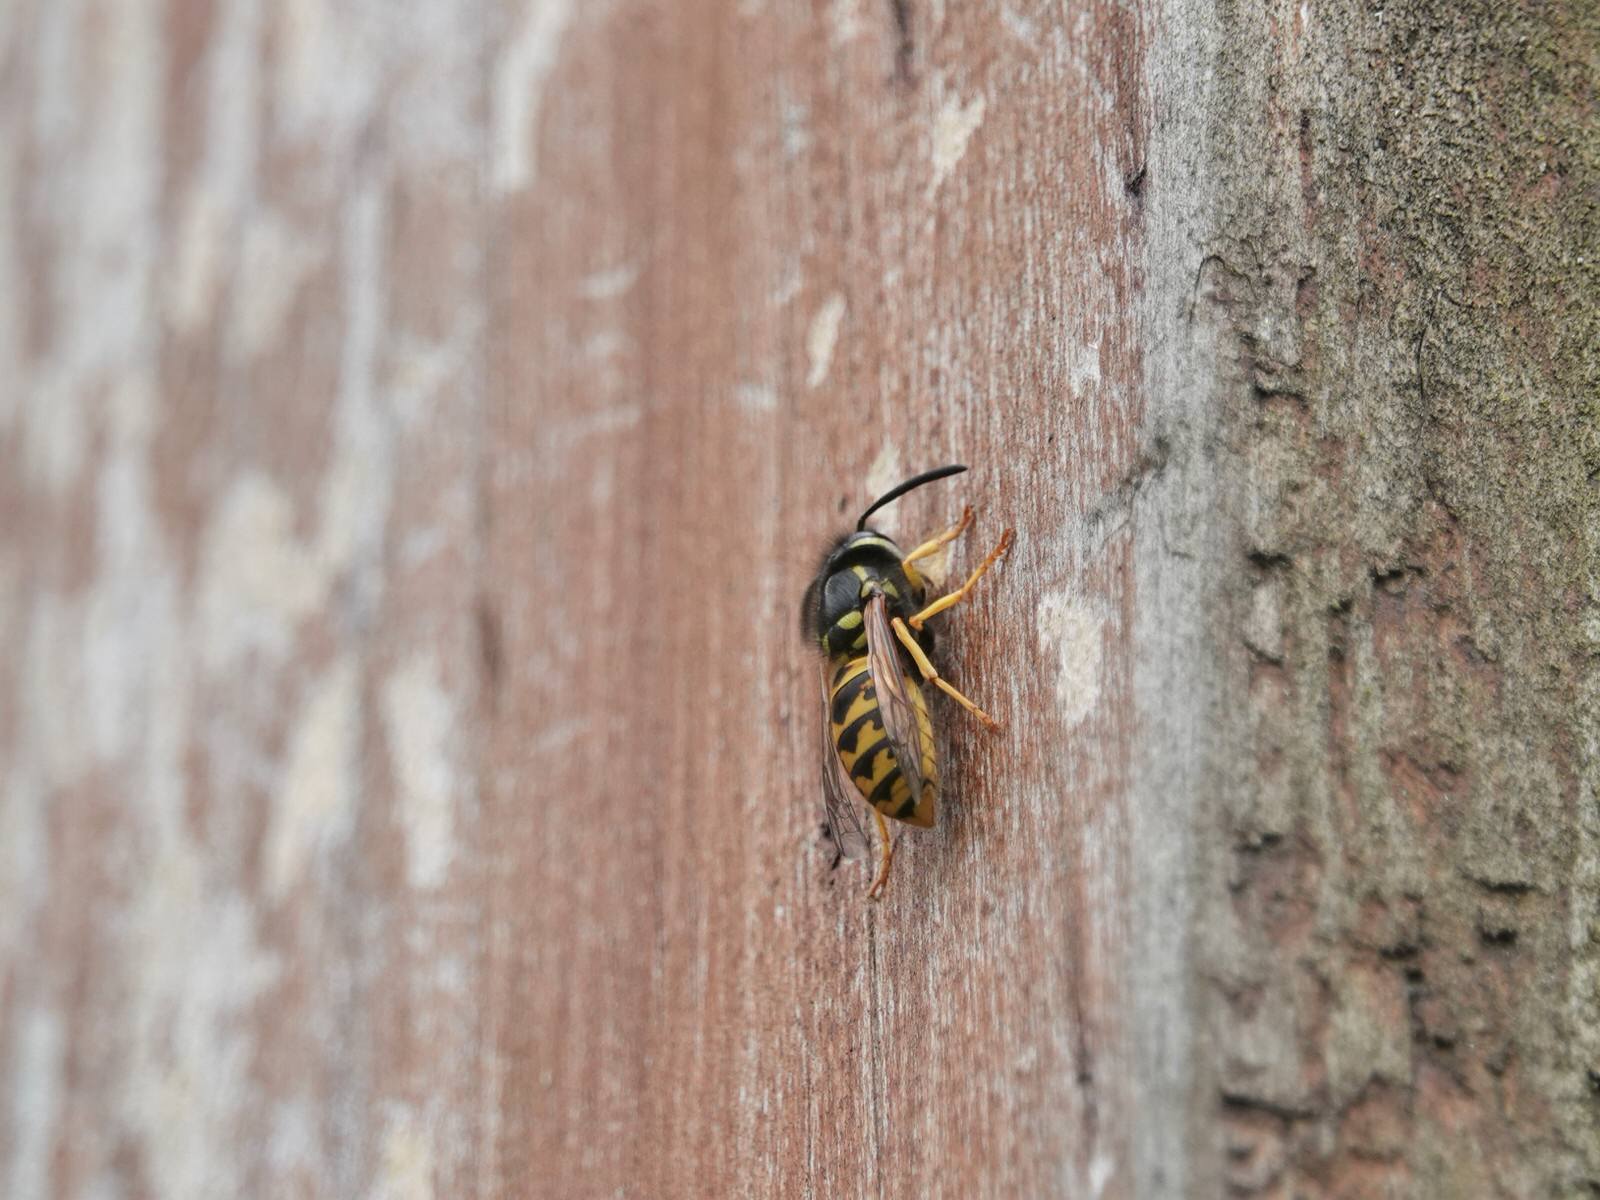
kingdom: Animalia
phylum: Arthropoda
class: Insecta
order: Hymenoptera
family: Vespidae
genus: Vespula
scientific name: Vespula germanica
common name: German wasp
